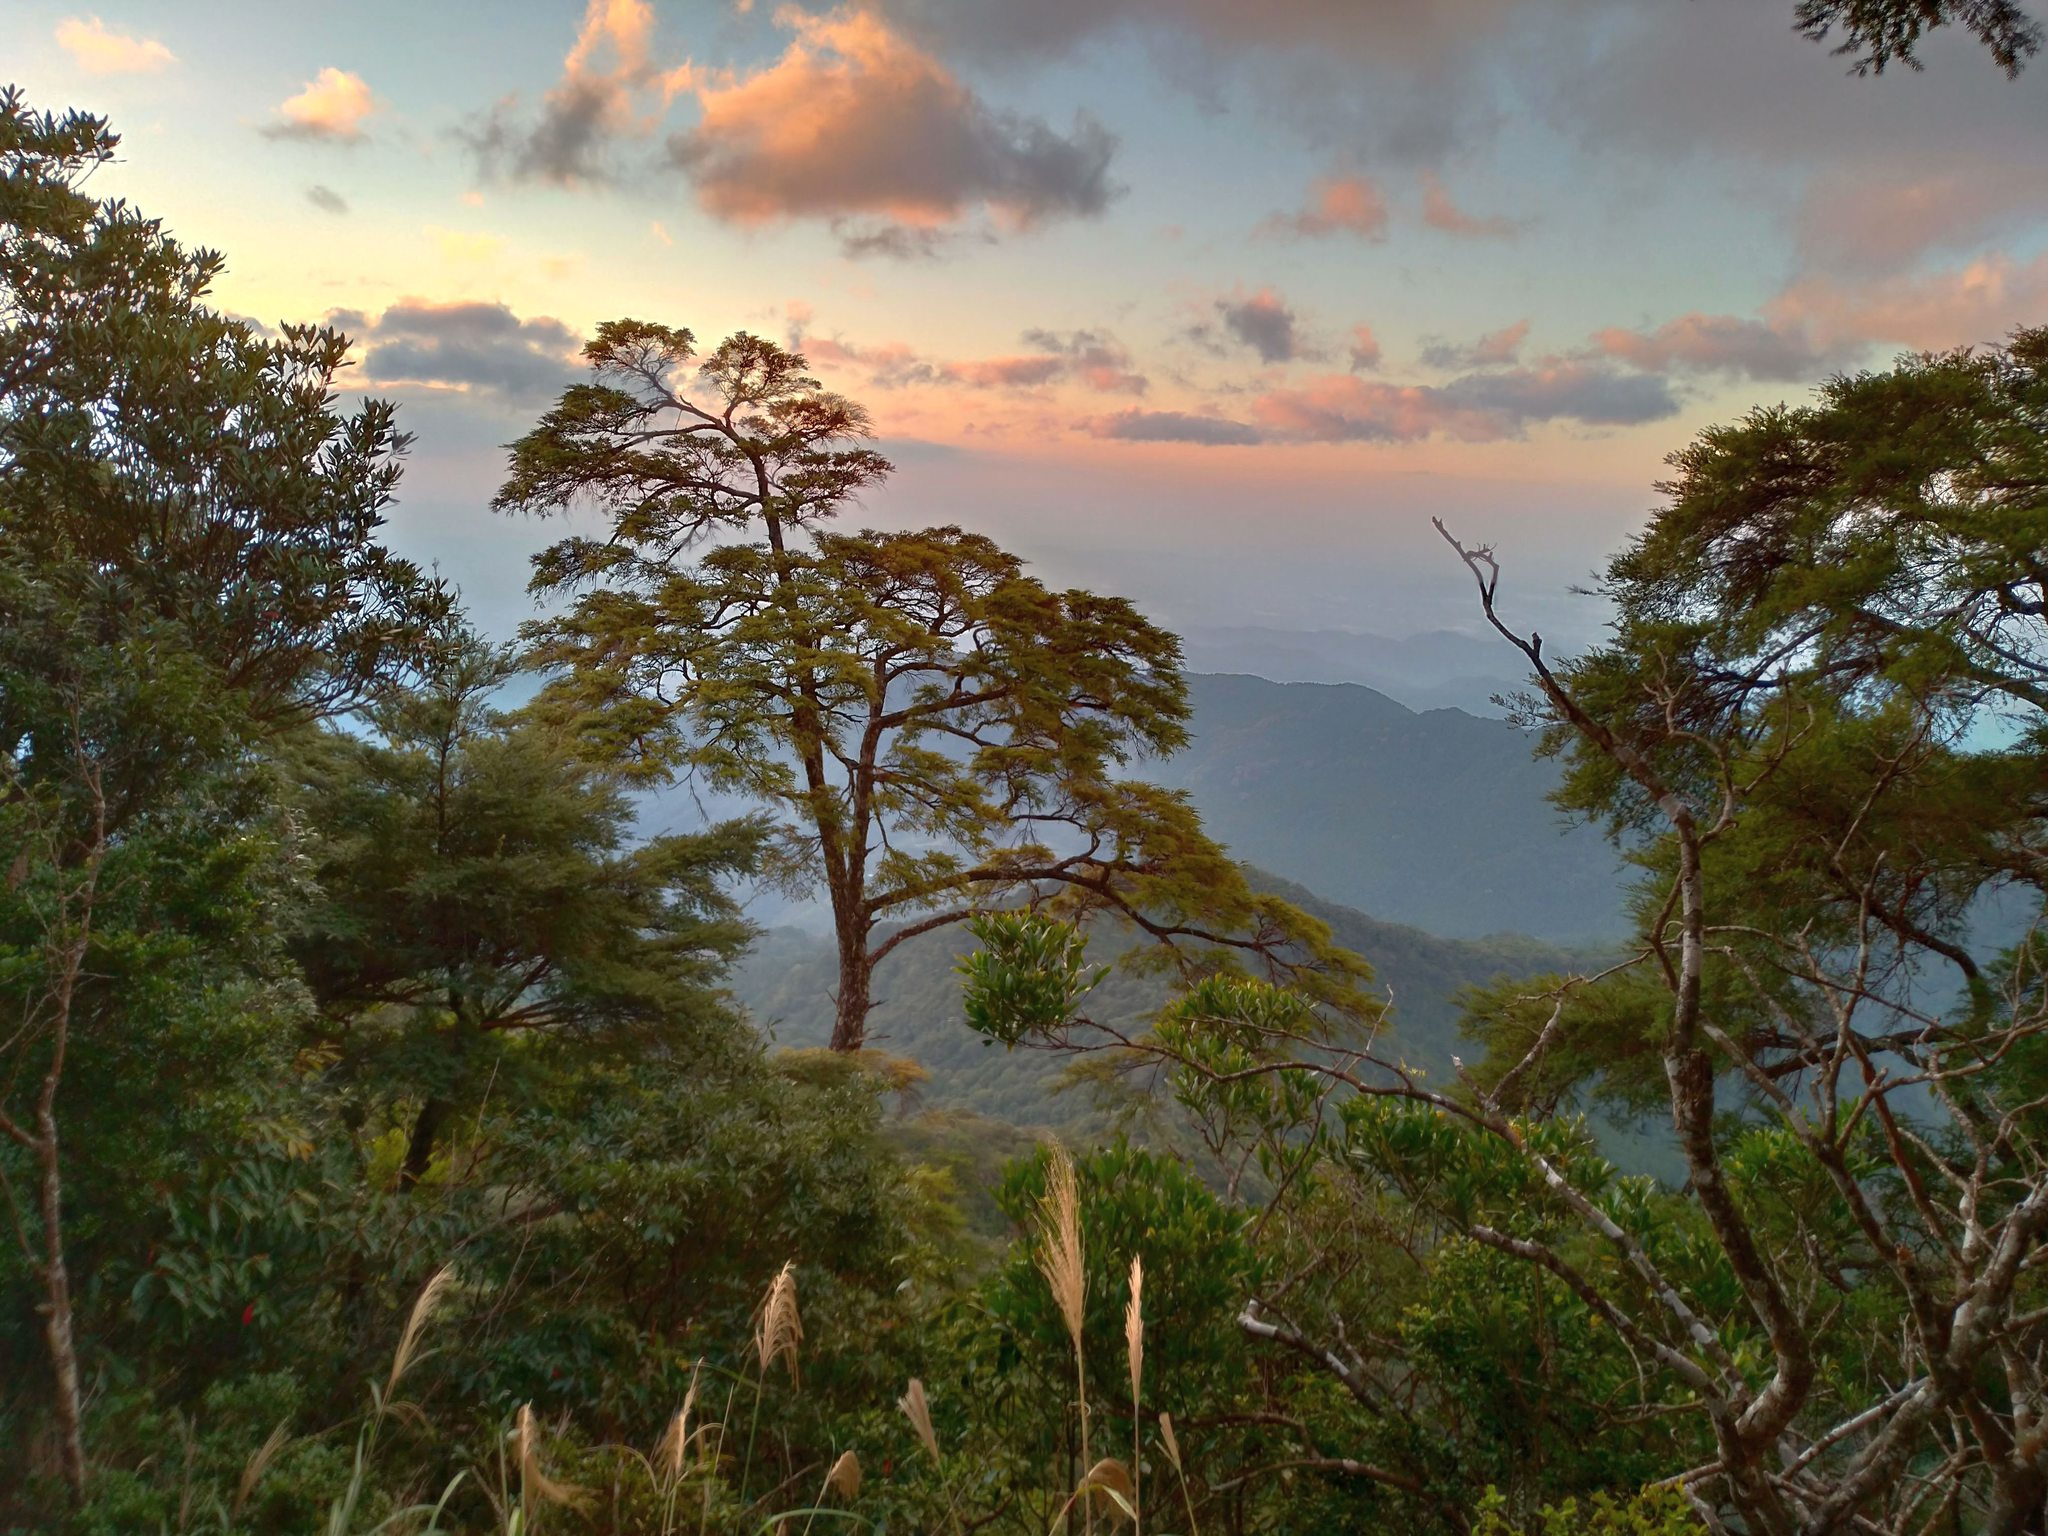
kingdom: Plantae
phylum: Tracheophyta
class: Pinopsida
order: Pinales
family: Pinaceae
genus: Tsuga
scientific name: Tsuga chinensis
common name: Chinese hemlock
